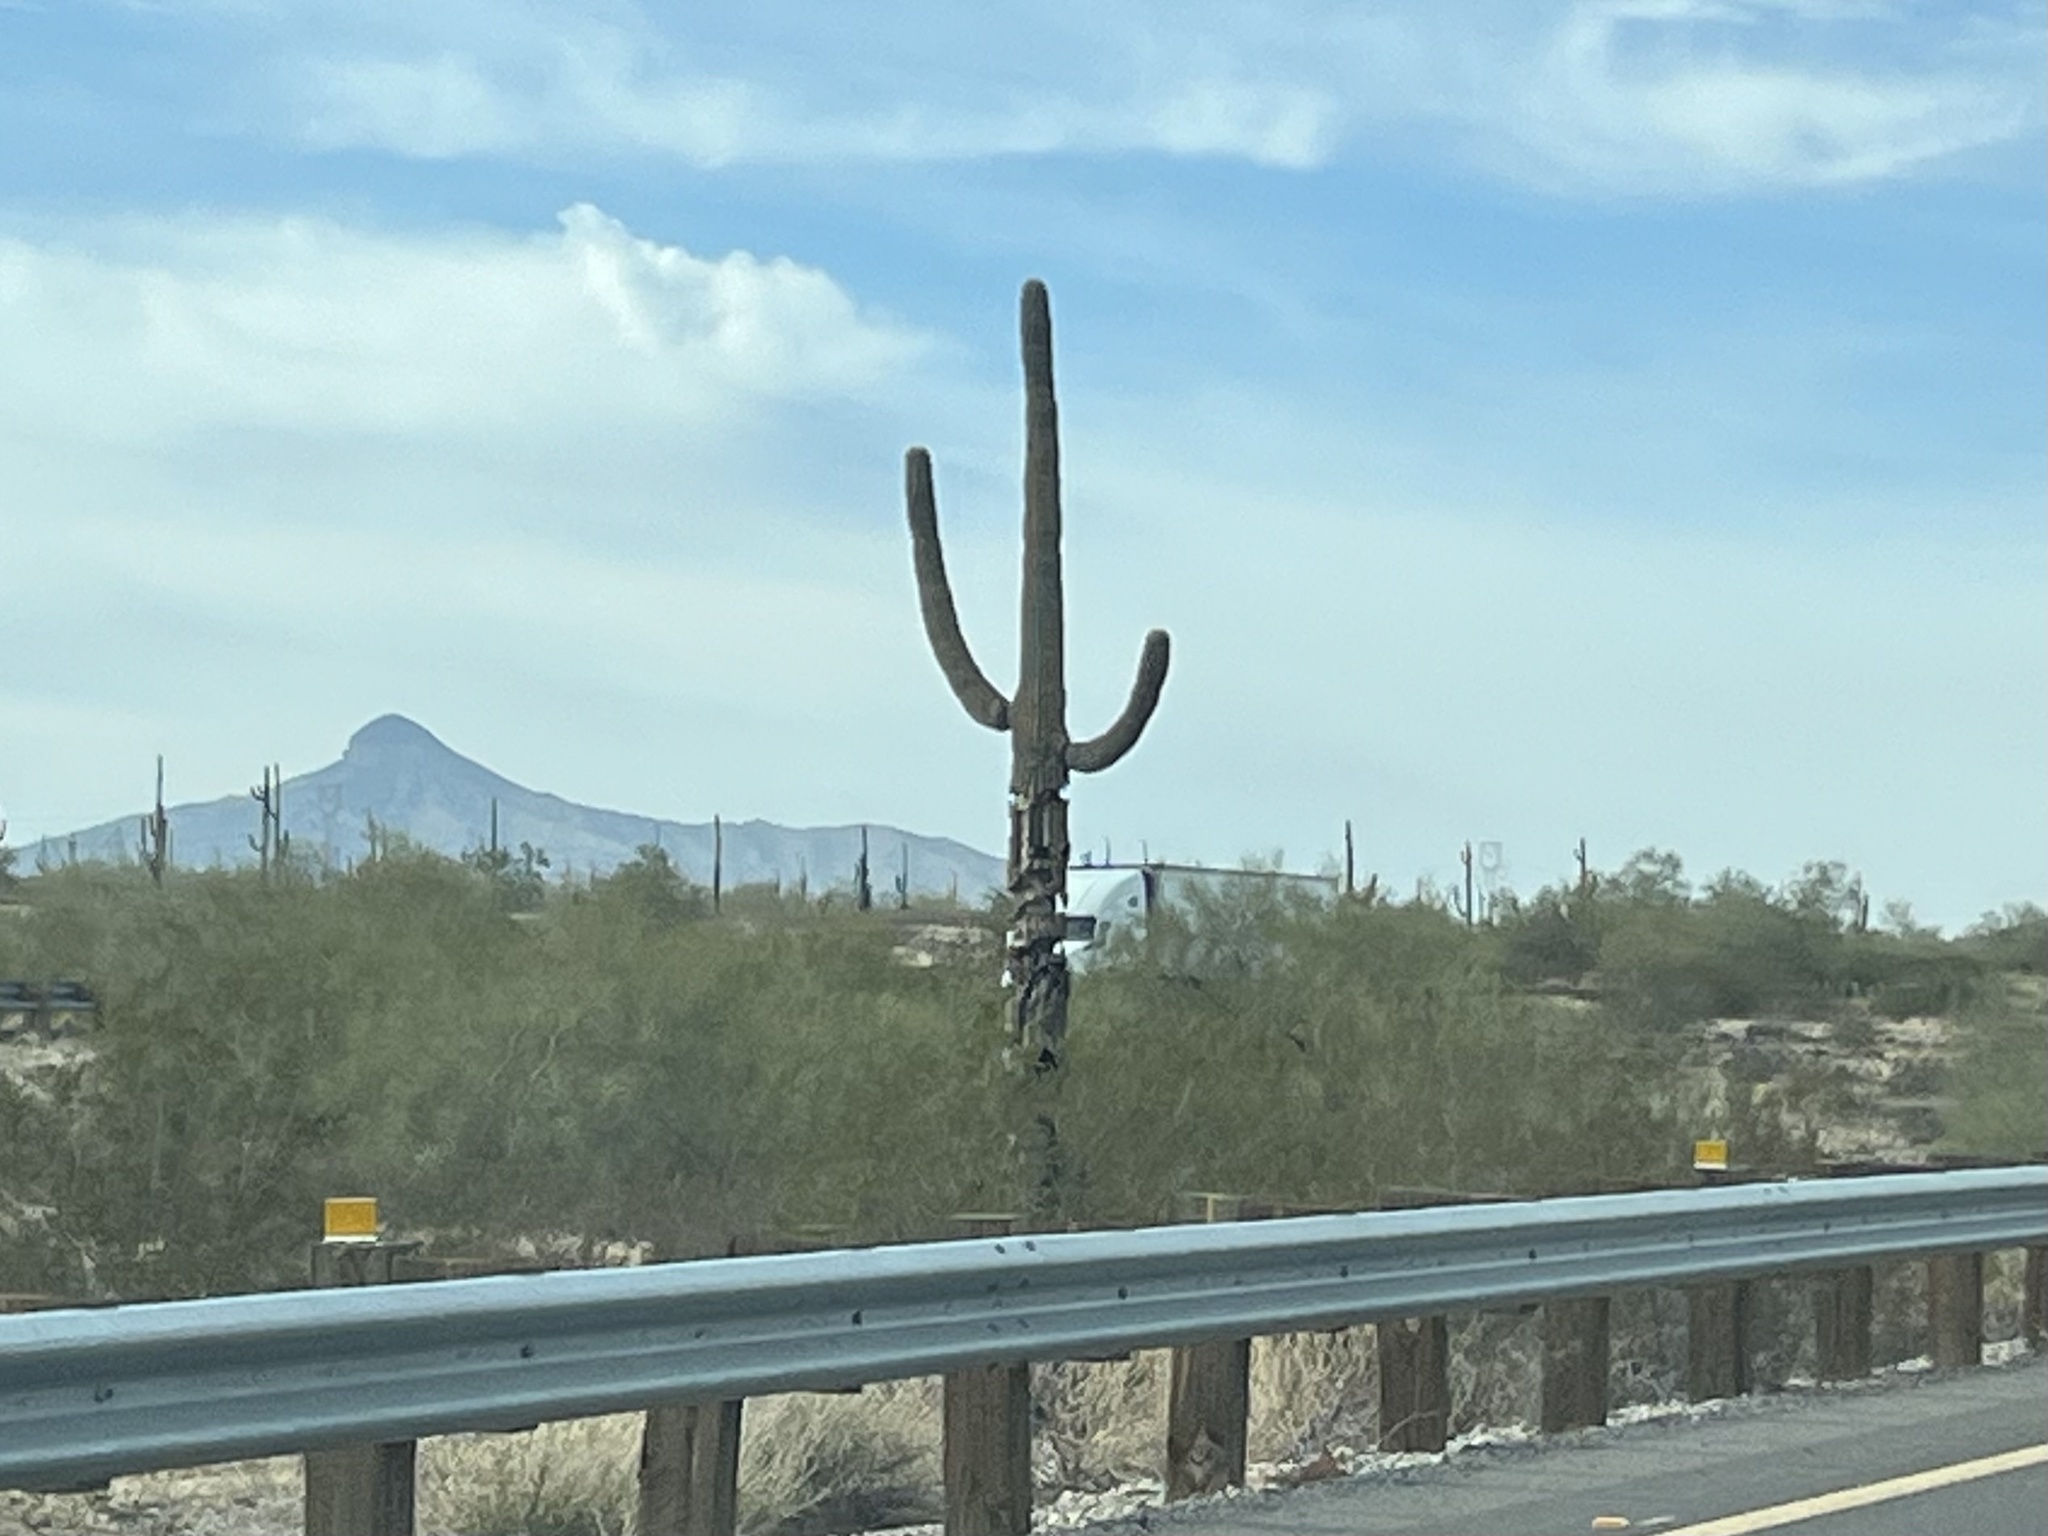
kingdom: Plantae
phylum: Tracheophyta
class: Magnoliopsida
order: Caryophyllales
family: Cactaceae
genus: Carnegiea
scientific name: Carnegiea gigantea
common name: Saguaro
